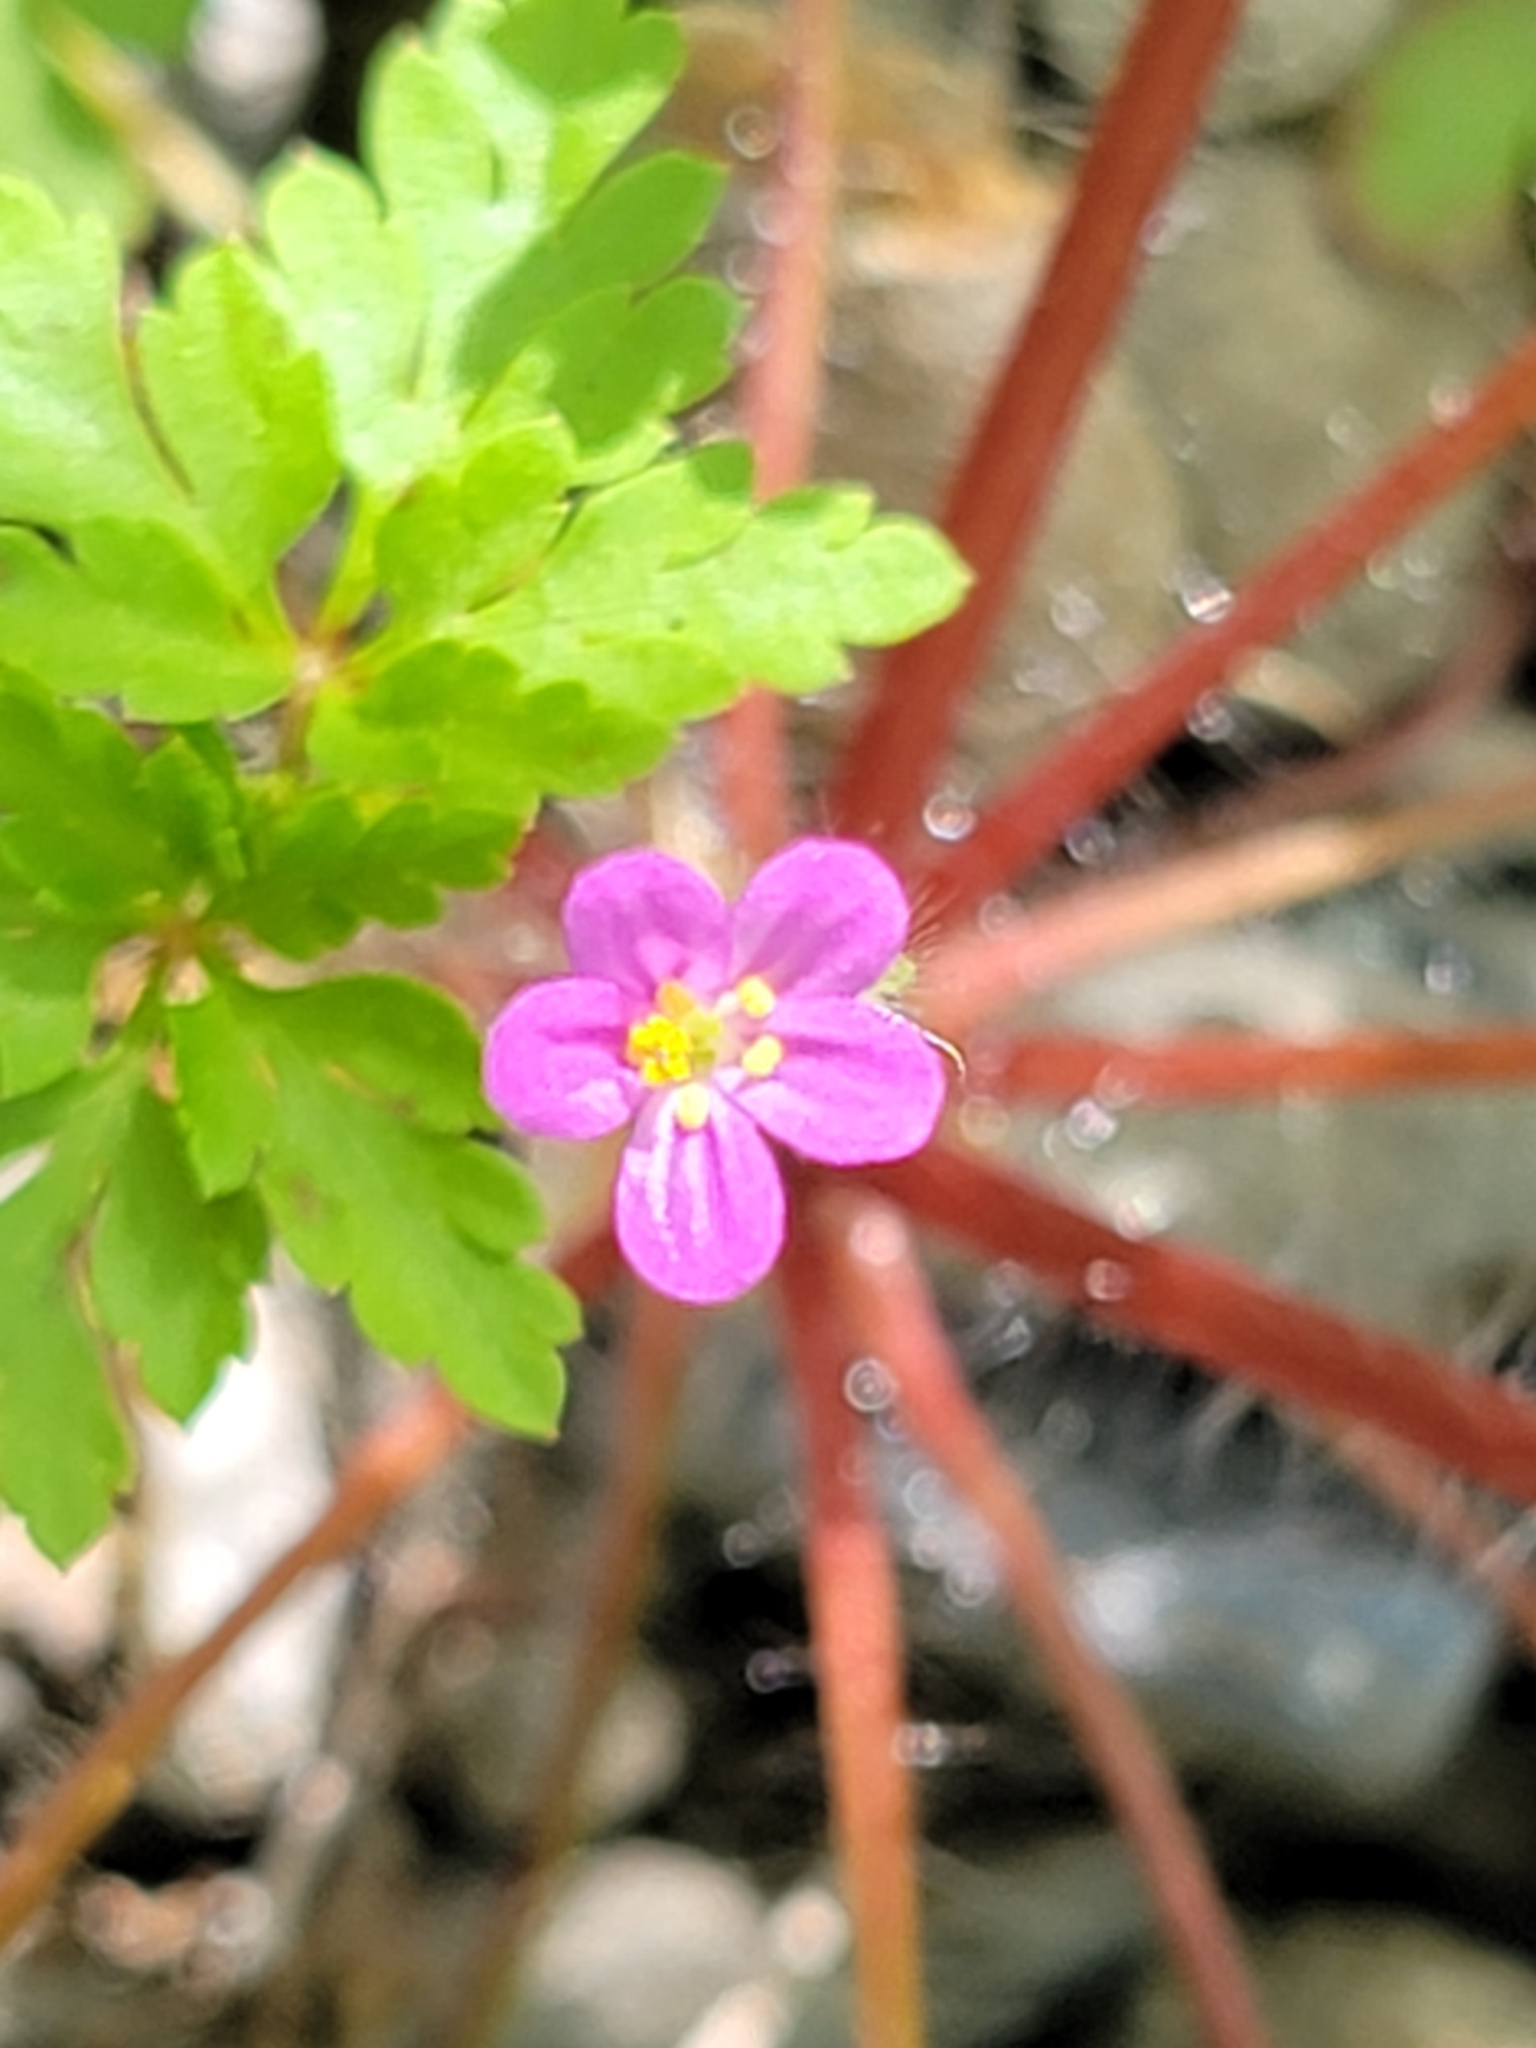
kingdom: Plantae
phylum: Tracheophyta
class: Magnoliopsida
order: Geraniales
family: Geraniaceae
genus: Geranium
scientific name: Geranium purpureum
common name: Little-robin
